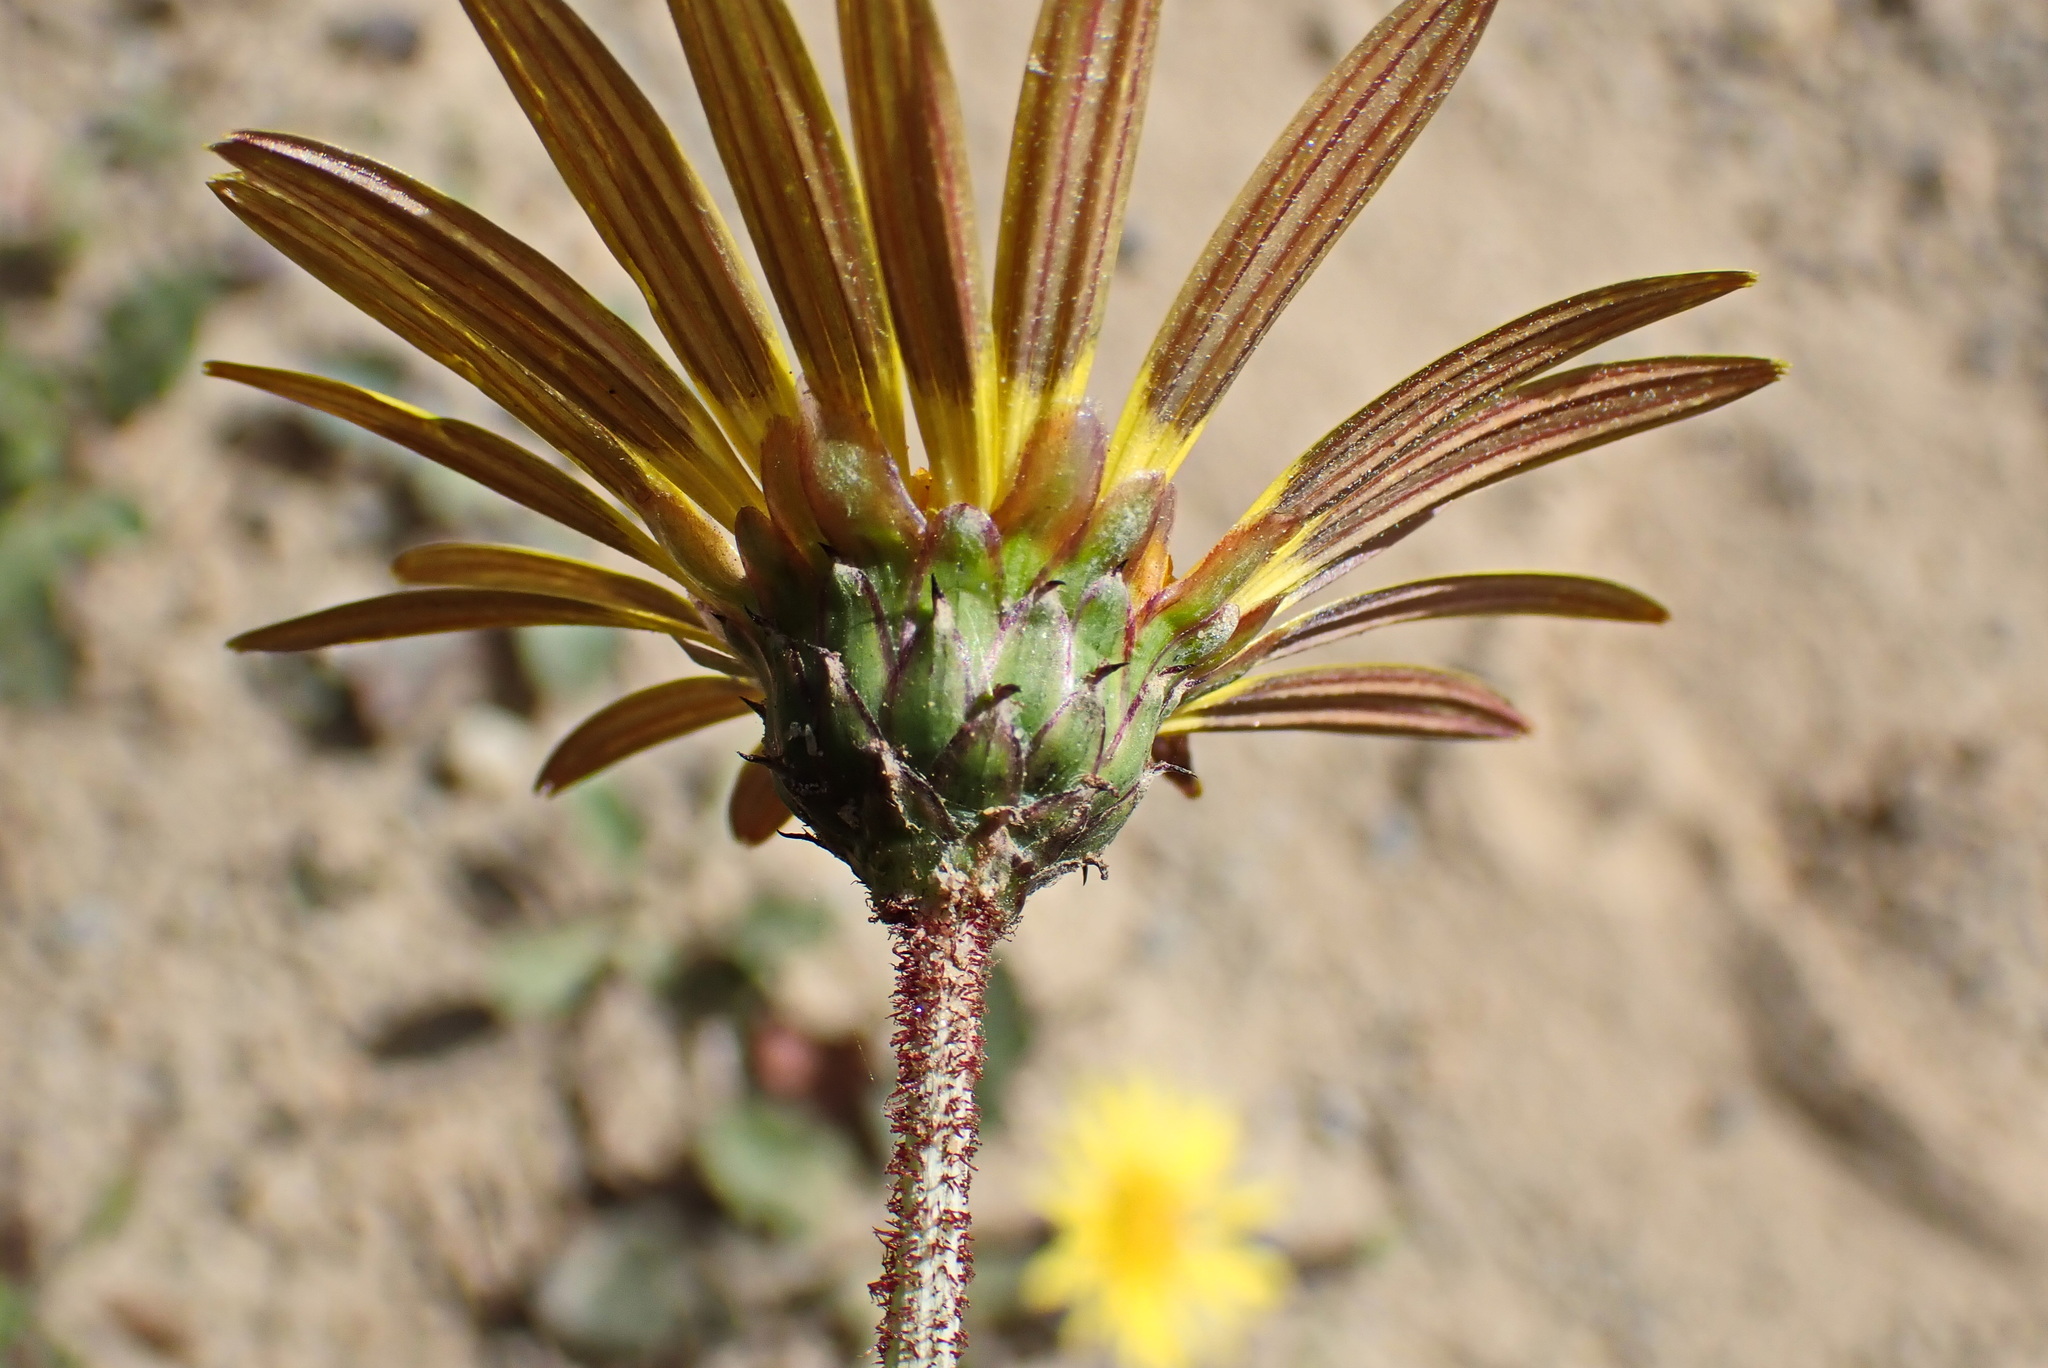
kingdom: Plantae
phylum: Tracheophyta
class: Magnoliopsida
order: Asterales
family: Asteraceae
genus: Arctotheca
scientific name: Arctotheca prostrata
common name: Capeweed
